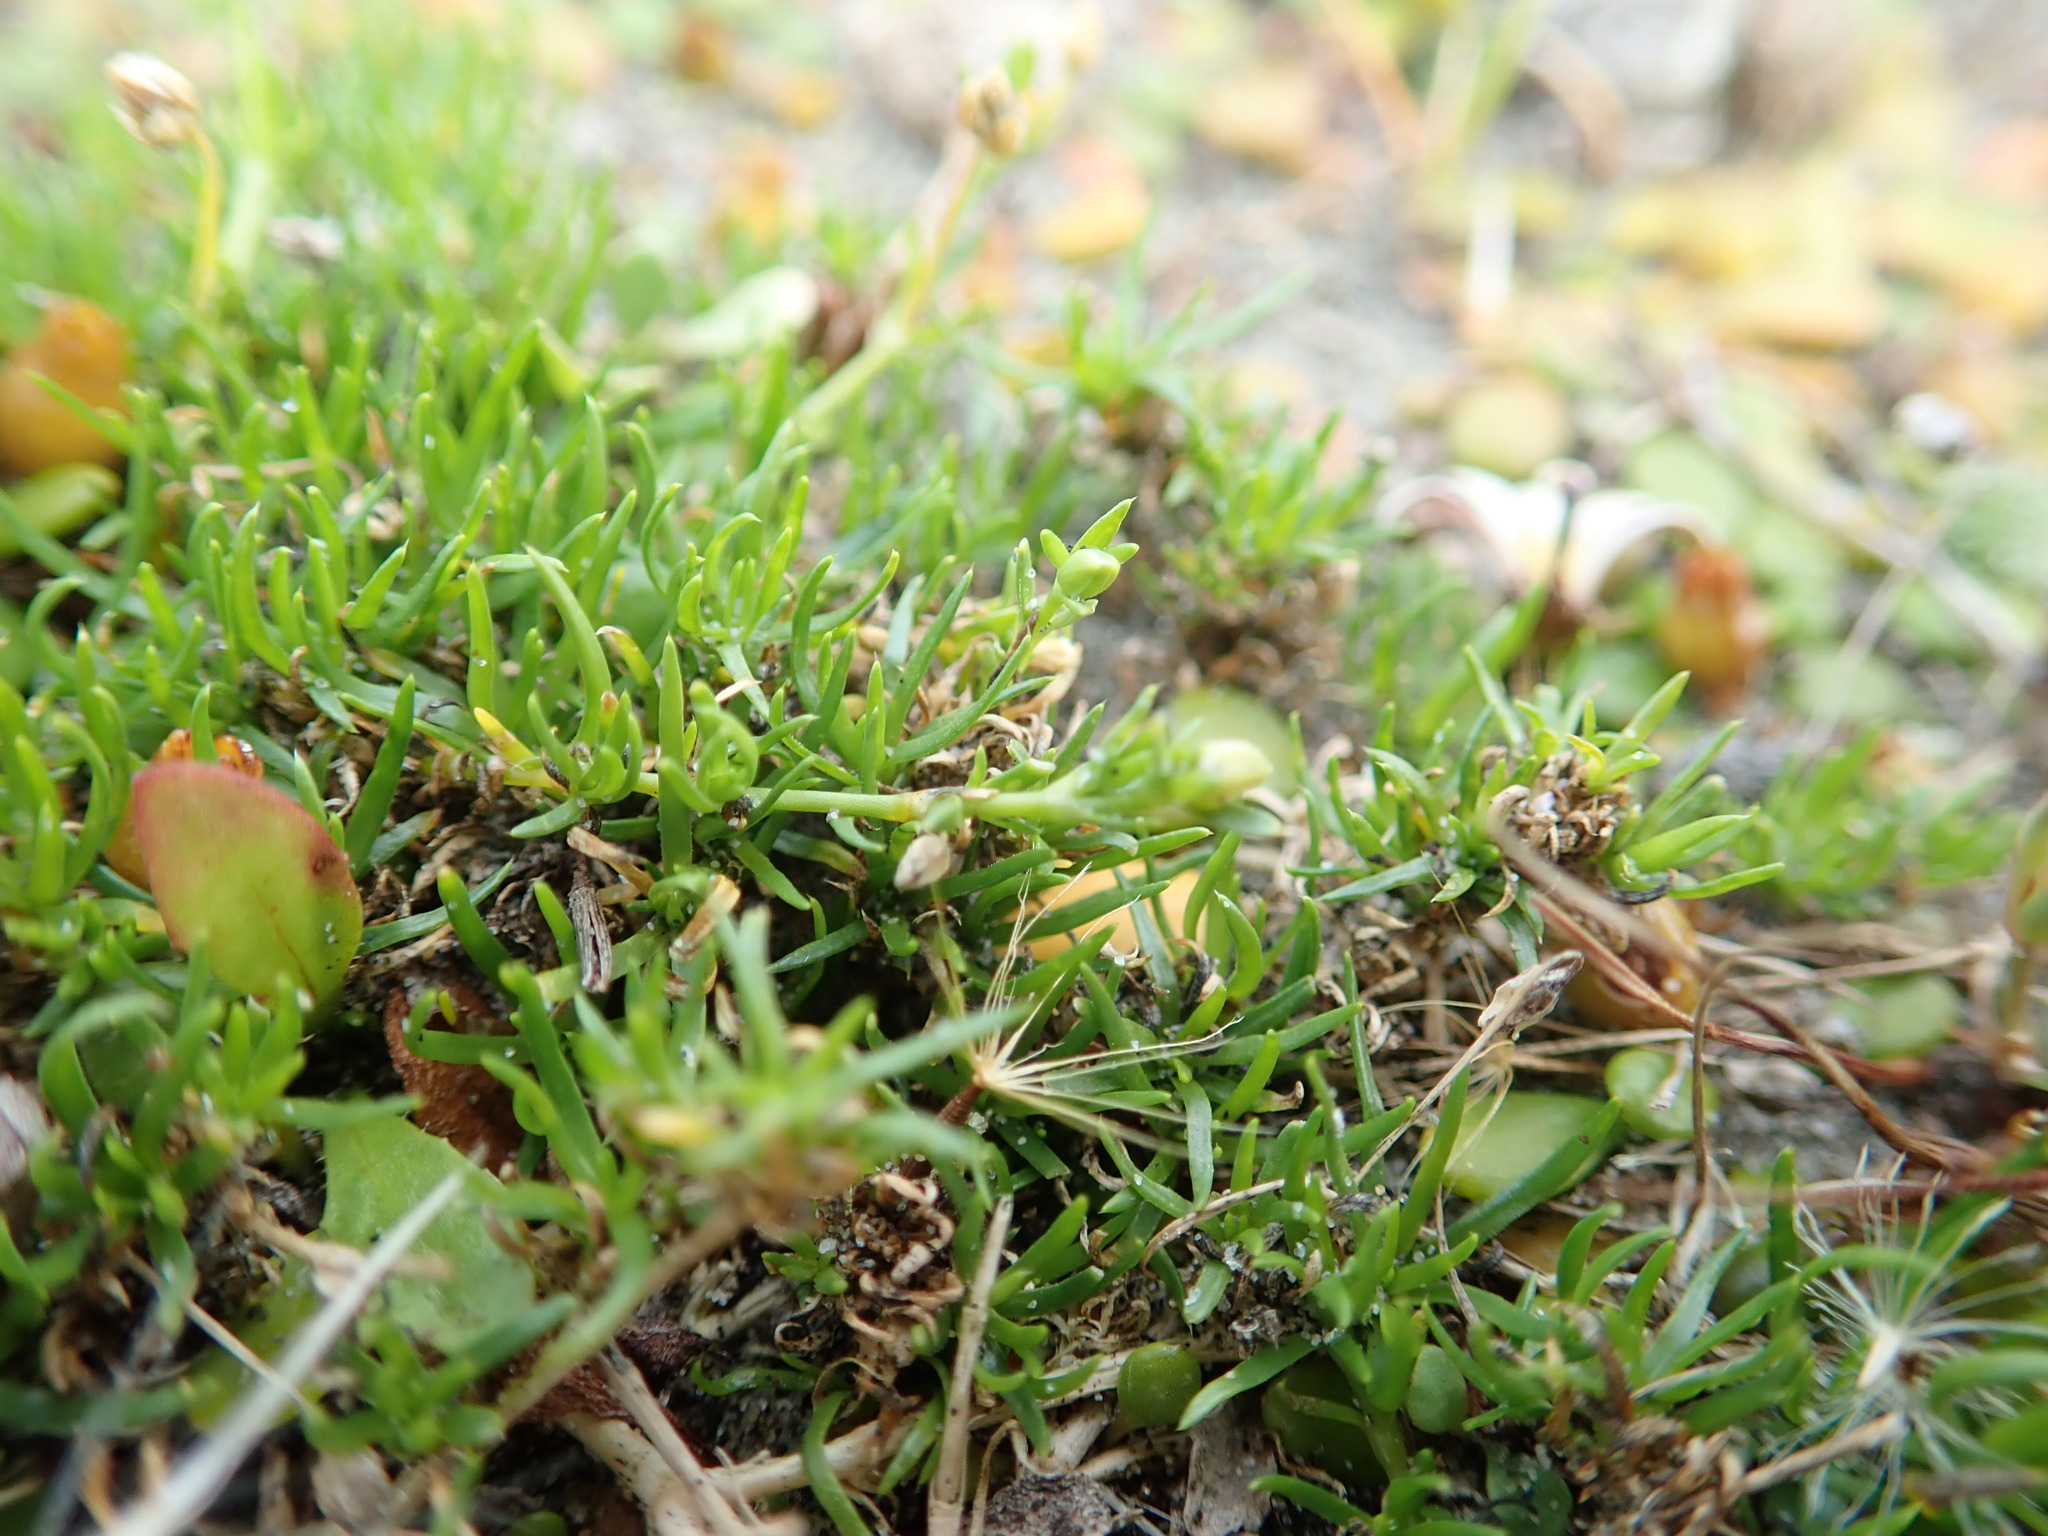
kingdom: Plantae
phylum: Tracheophyta
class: Magnoliopsida
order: Caryophyllales
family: Caryophyllaceae
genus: Sagina
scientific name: Sagina procumbens
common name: Procumbent pearlwort
